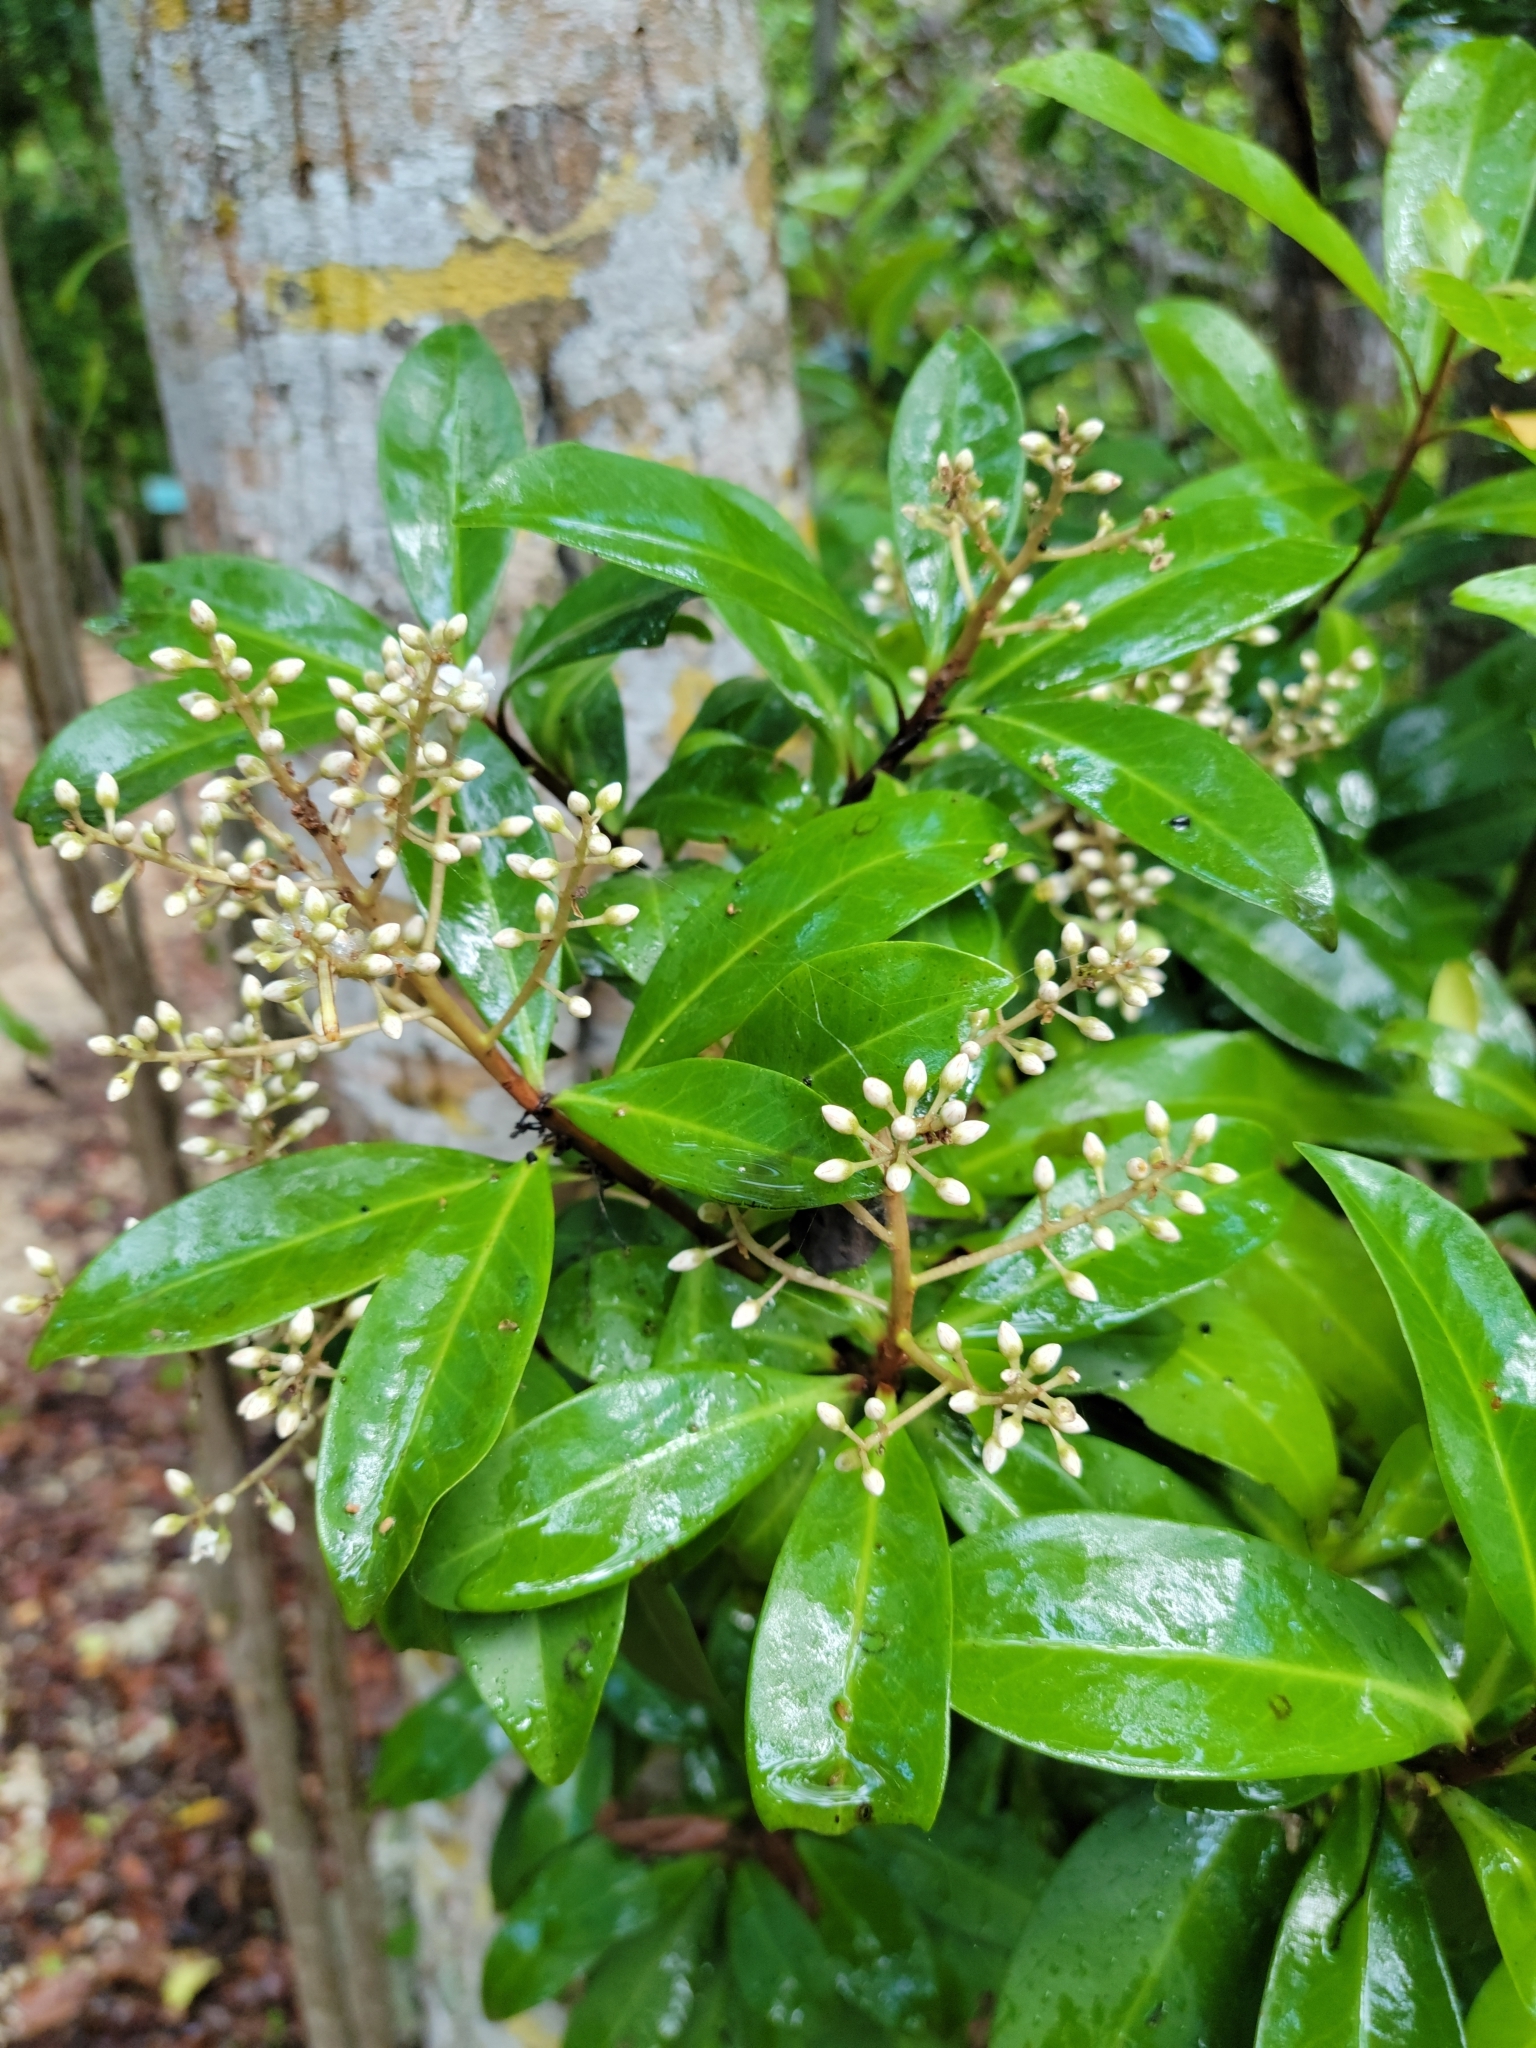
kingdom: Plantae
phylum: Tracheophyta
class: Magnoliopsida
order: Ericales
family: Primulaceae
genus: Ardisia
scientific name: Ardisia escallonioides
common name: Island marlberry
